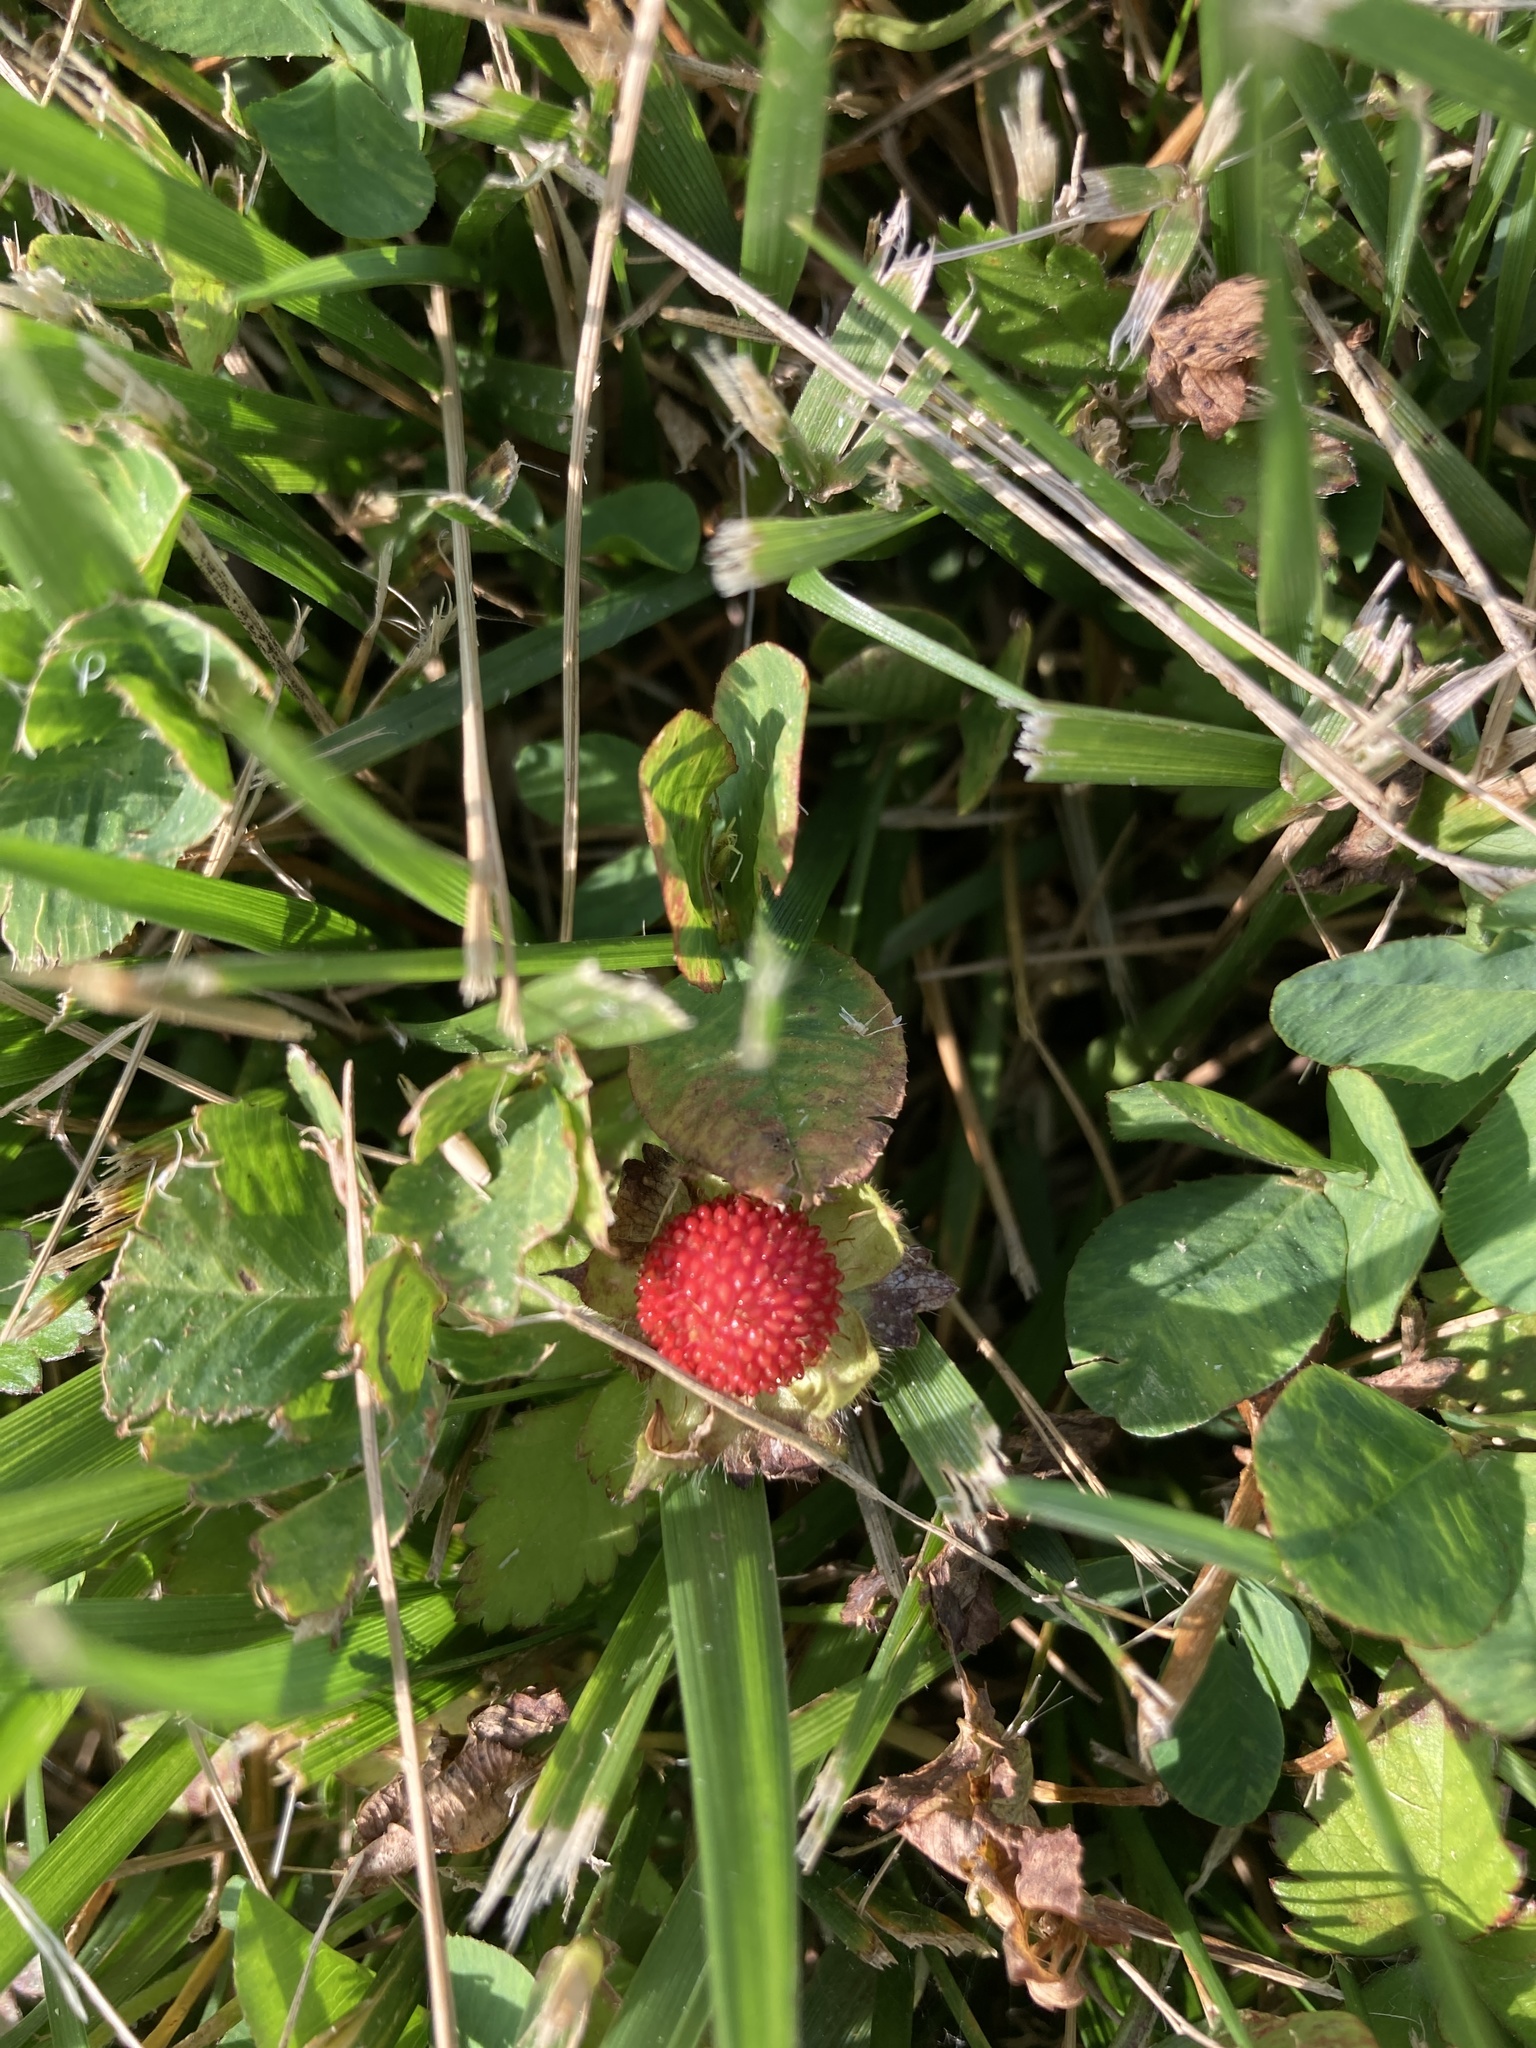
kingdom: Plantae
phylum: Tracheophyta
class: Magnoliopsida
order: Rosales
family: Rosaceae
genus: Potentilla
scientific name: Potentilla indica
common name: Yellow-flowered strawberry
